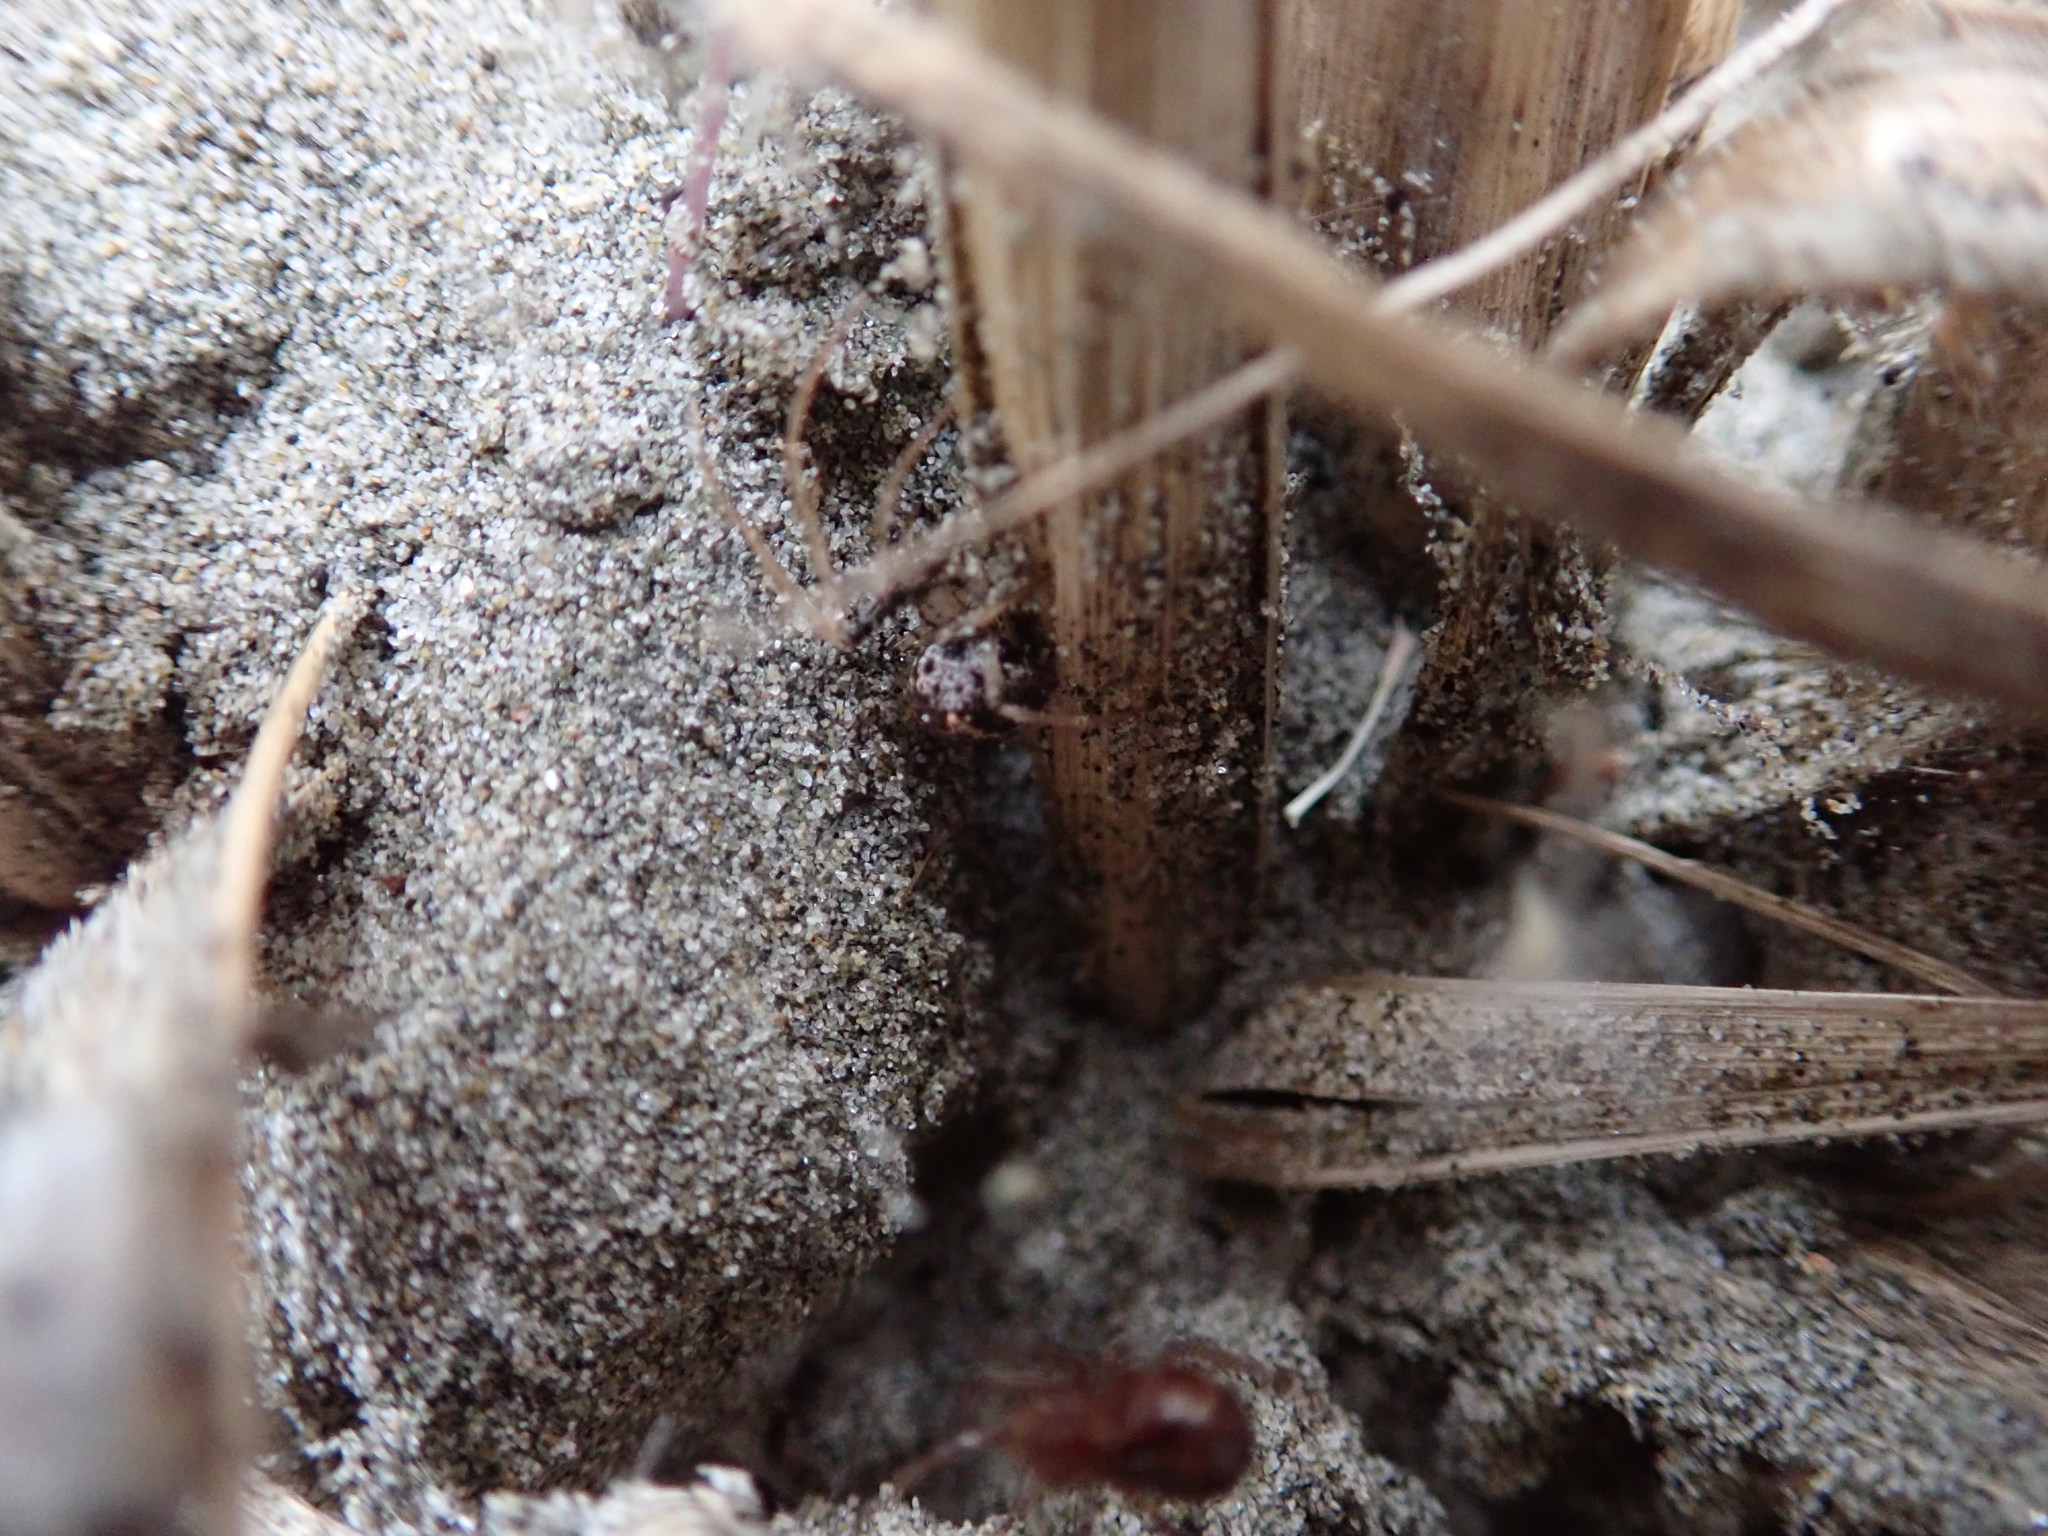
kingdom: Animalia
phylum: Arthropoda
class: Arachnida
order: Araneae
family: Mimetidae
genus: Australomimetus
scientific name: Australomimetus hartleyensis
